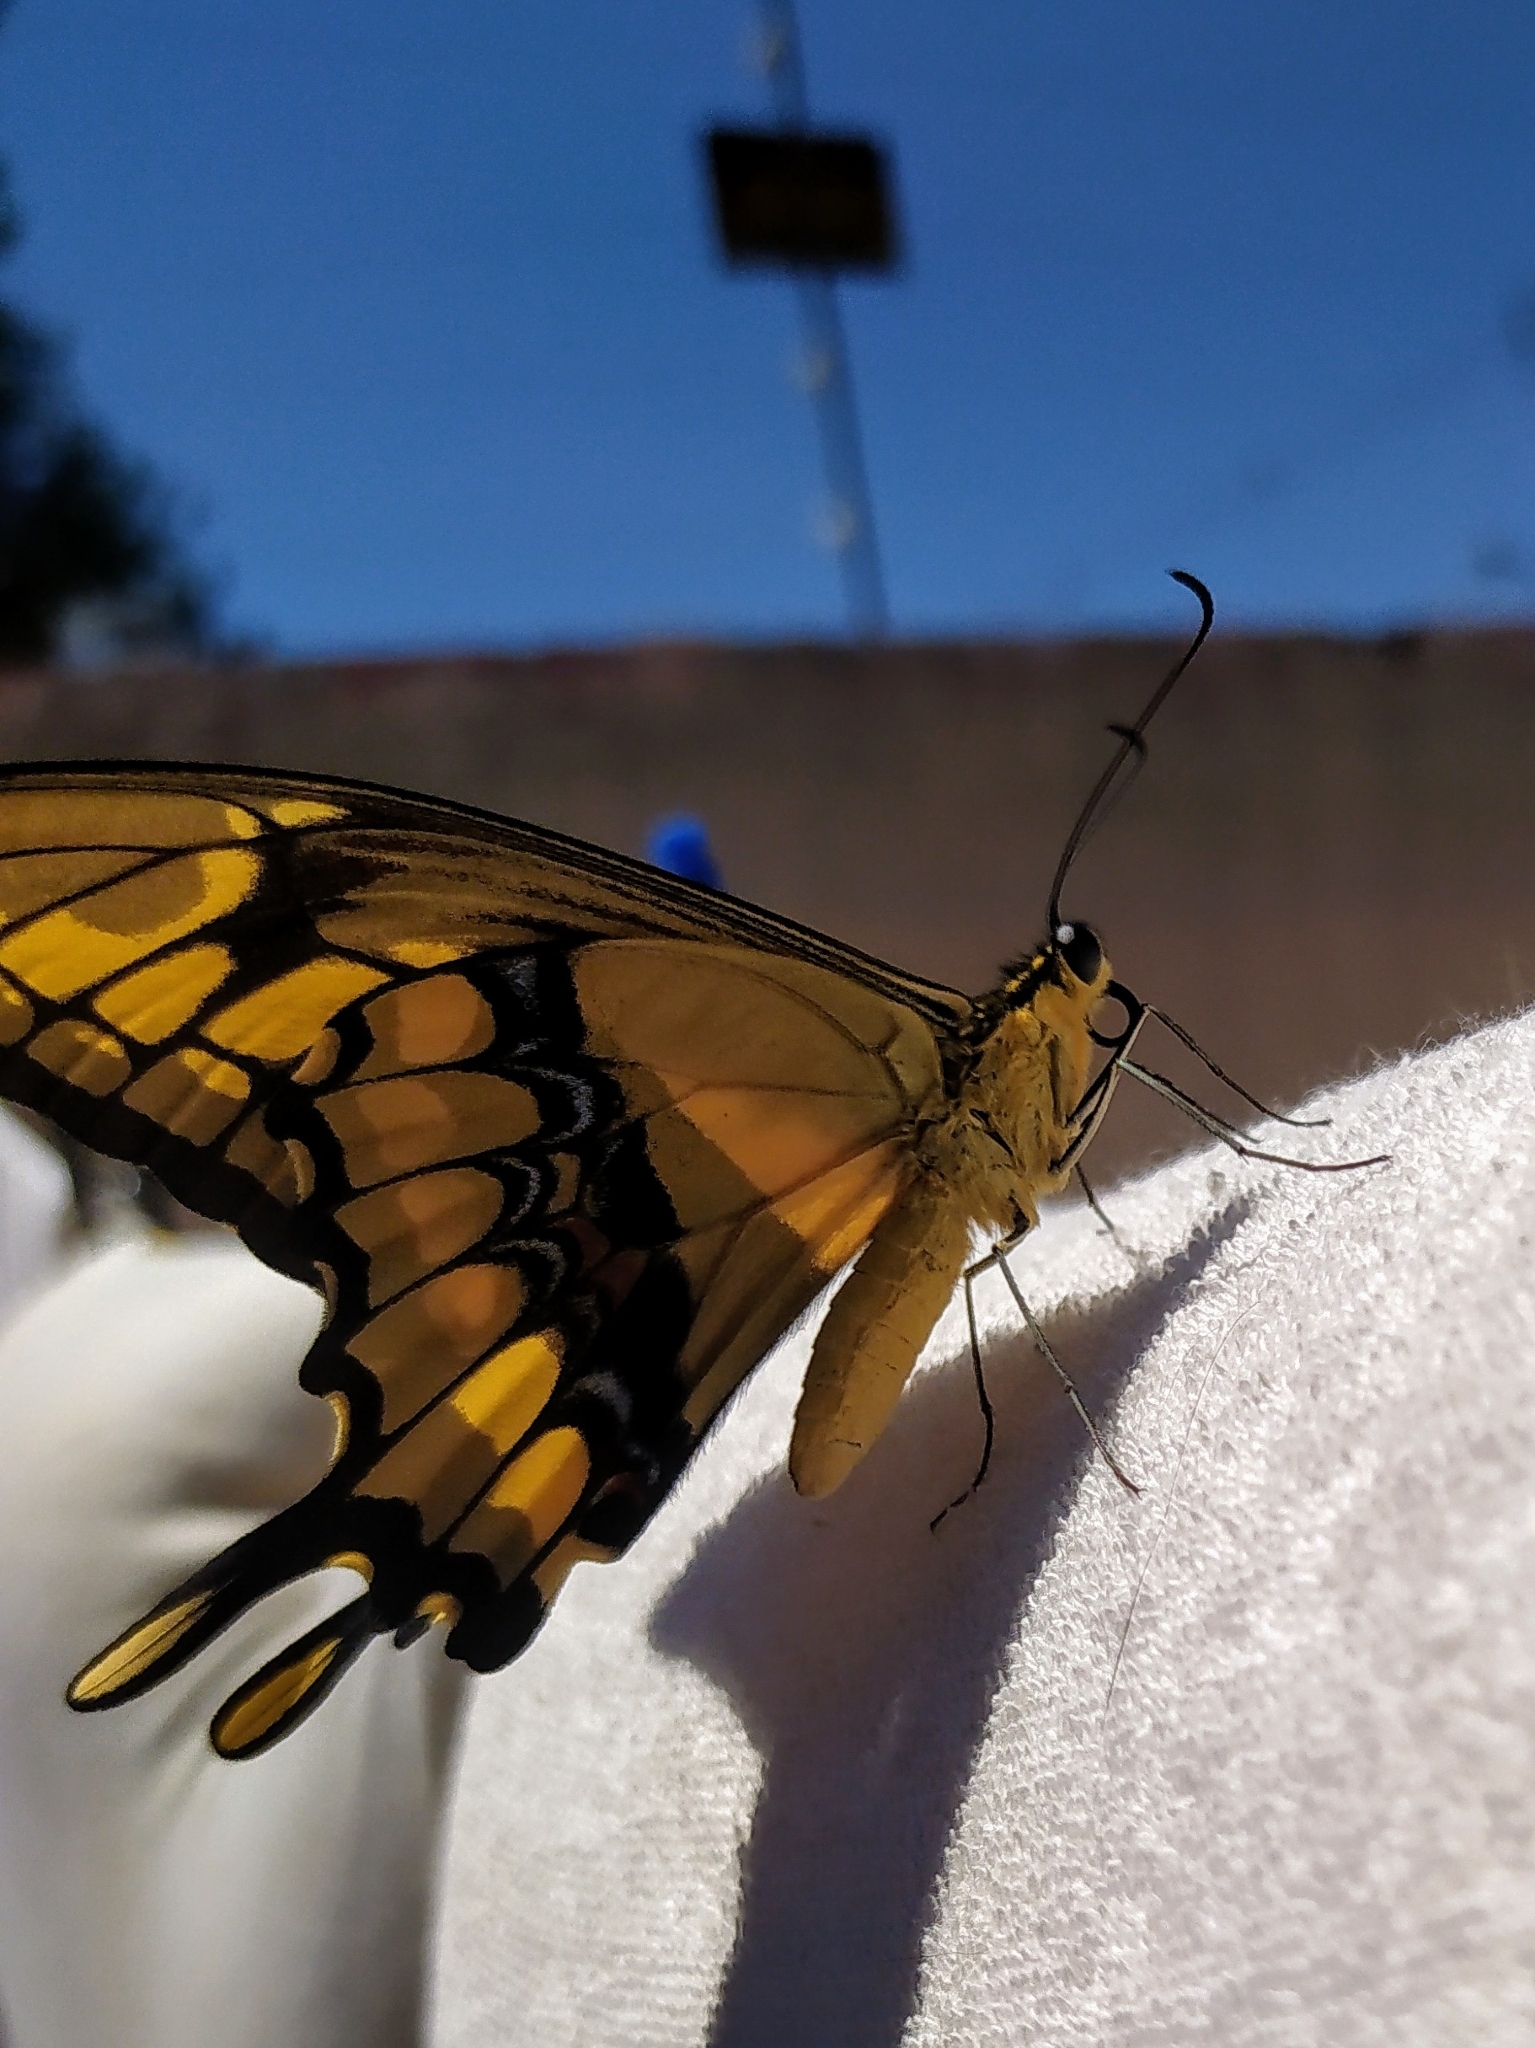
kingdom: Animalia
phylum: Arthropoda
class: Insecta
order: Lepidoptera
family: Papilionidae
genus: Papilio
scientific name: Papilio thoas
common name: King swallowtail
